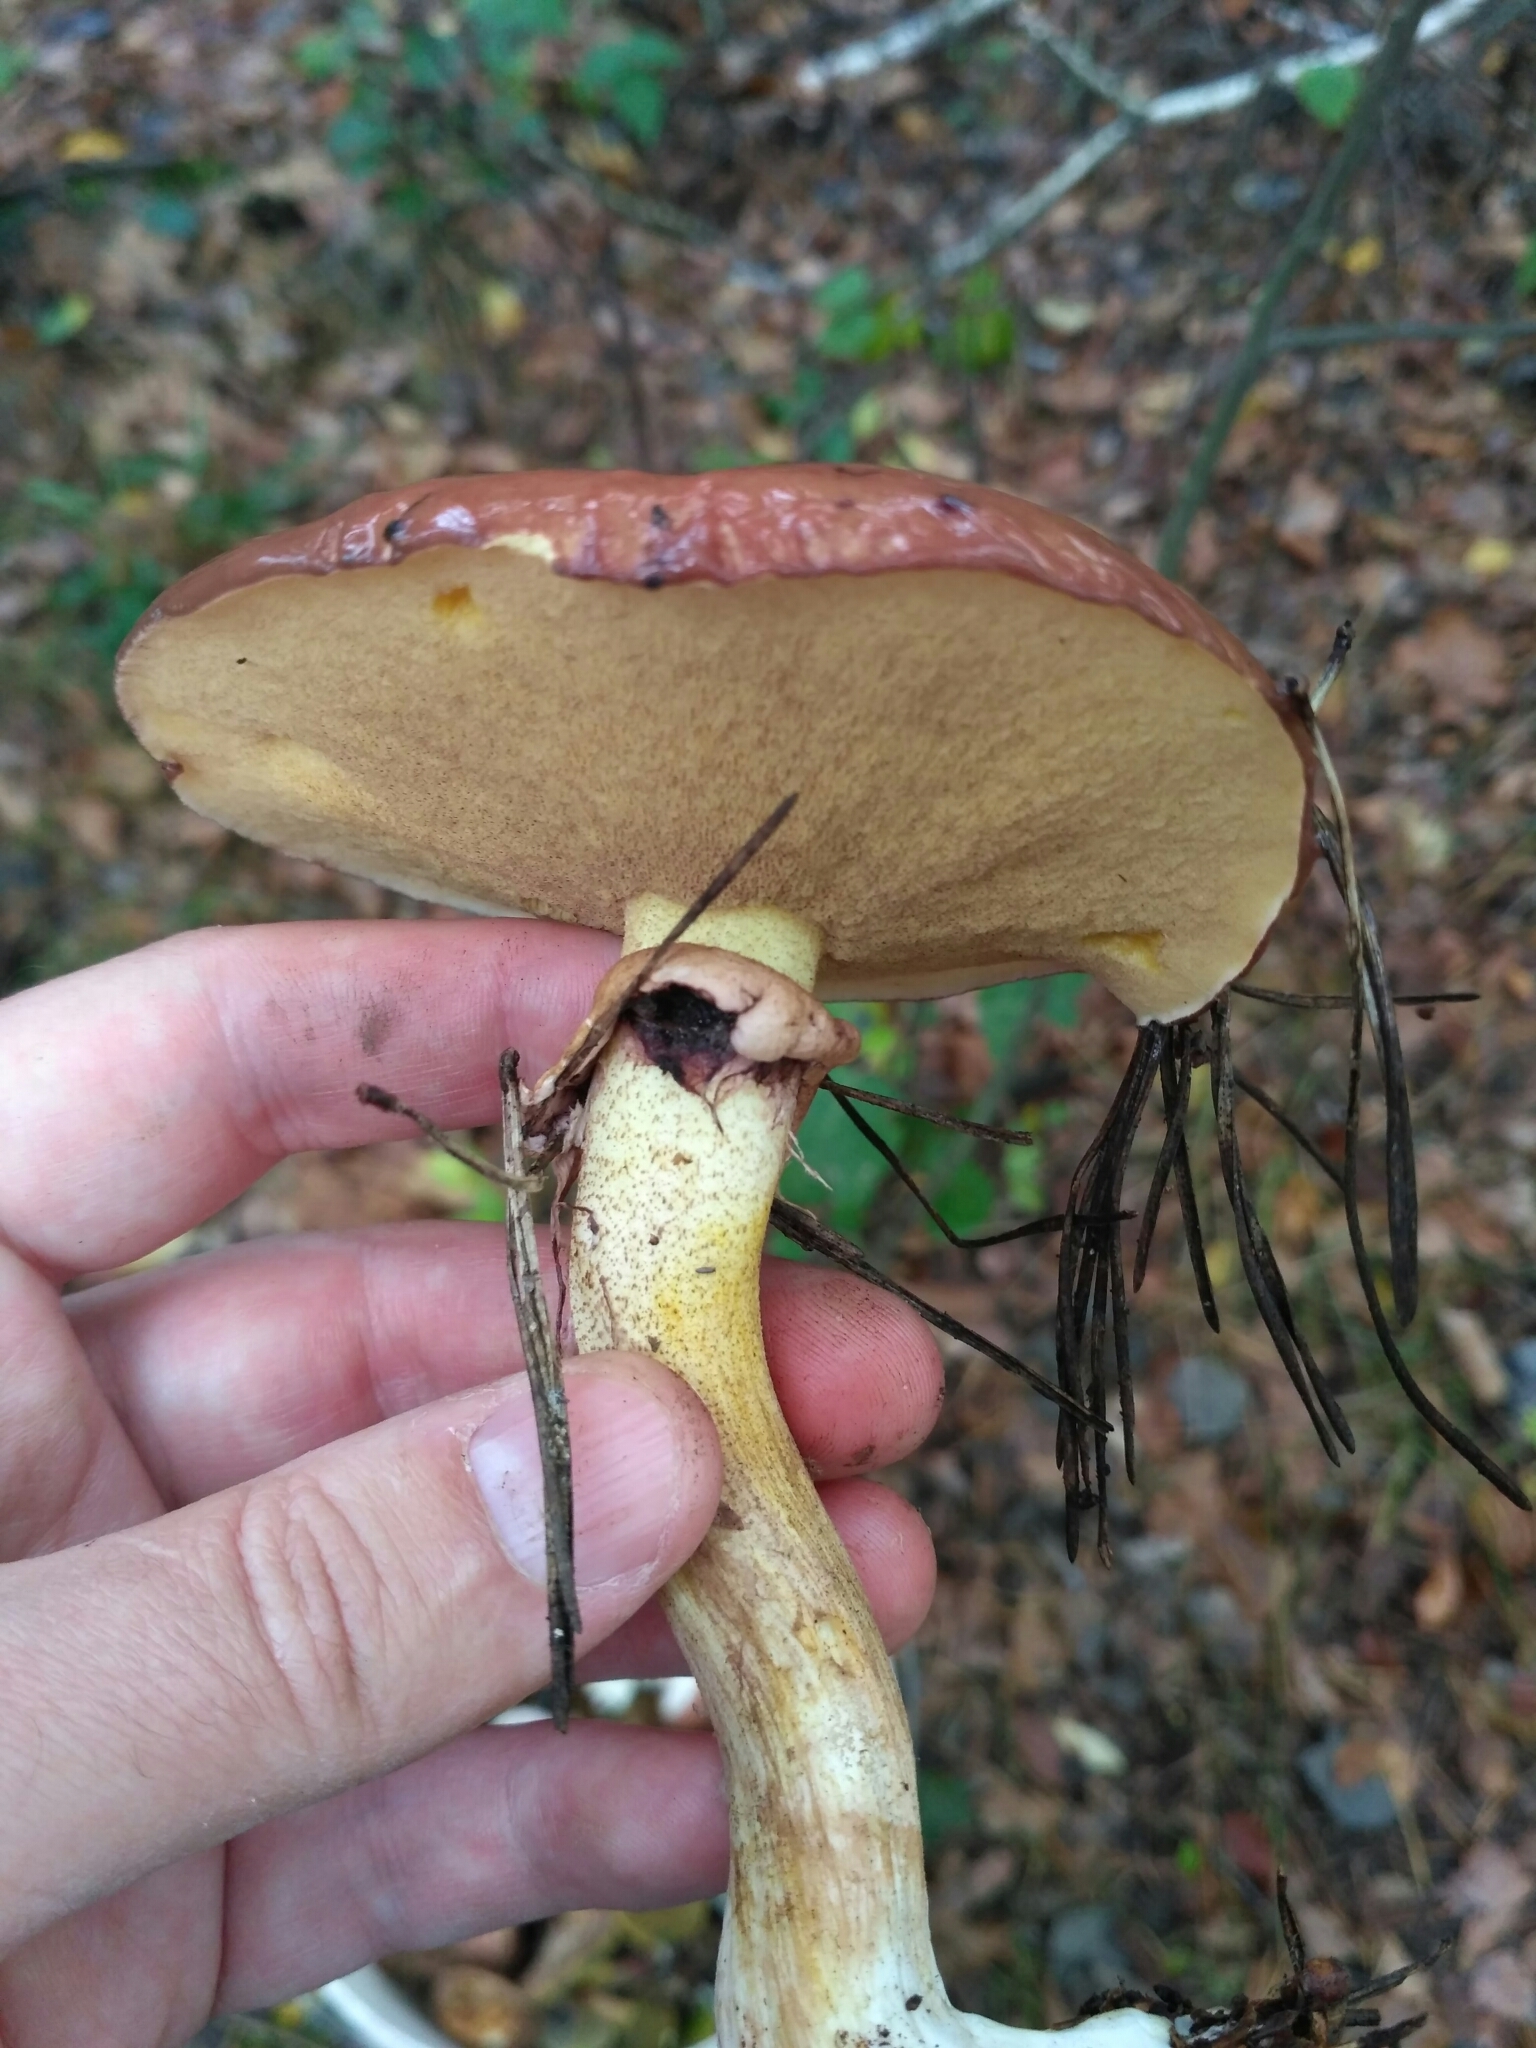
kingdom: Fungi
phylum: Basidiomycota
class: Agaricomycetes
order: Boletales
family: Suillaceae
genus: Suillus
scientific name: Suillus luteus
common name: Slippery jack
